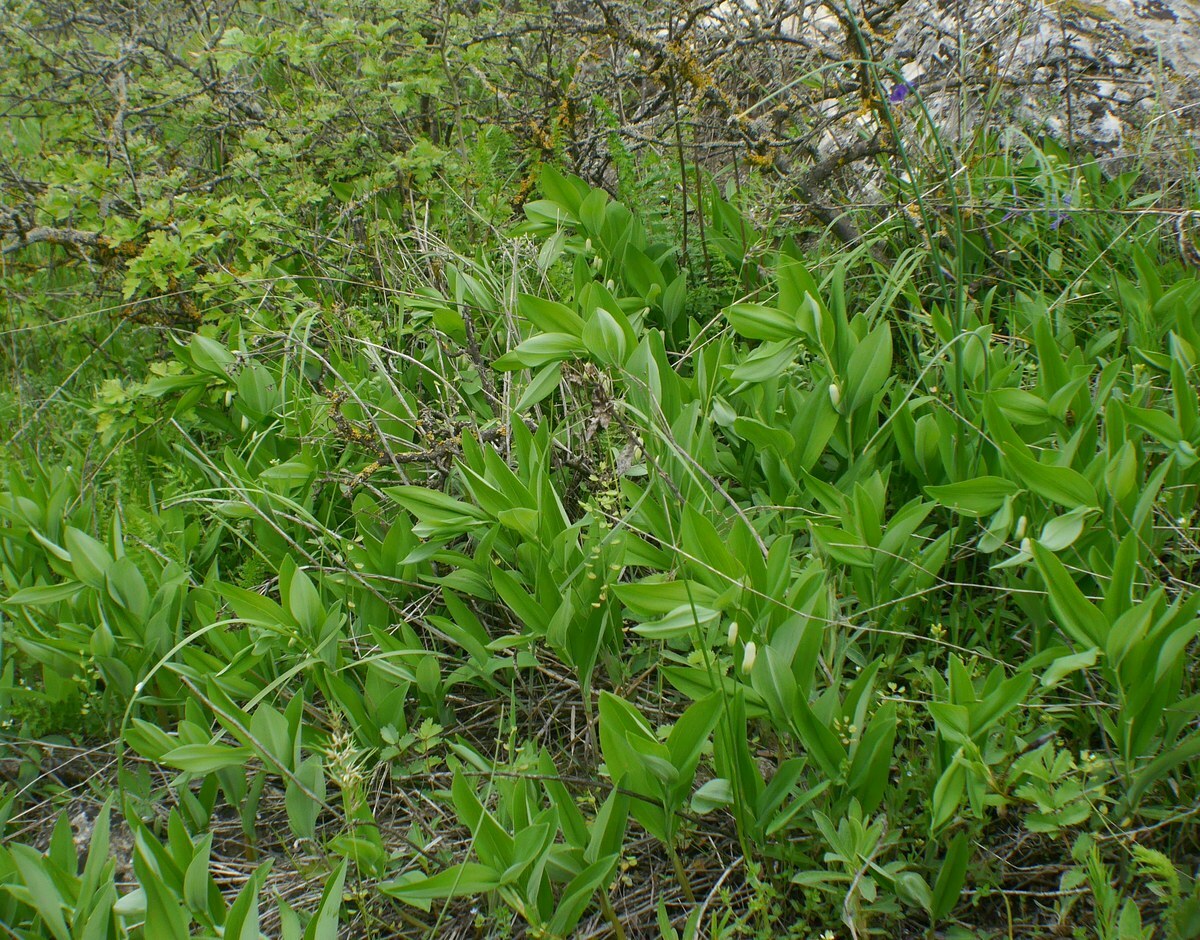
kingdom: Plantae
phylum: Tracheophyta
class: Liliopsida
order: Asparagales
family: Asparagaceae
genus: Polygonatum
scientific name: Polygonatum odoratum
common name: Angular solomon's-seal
